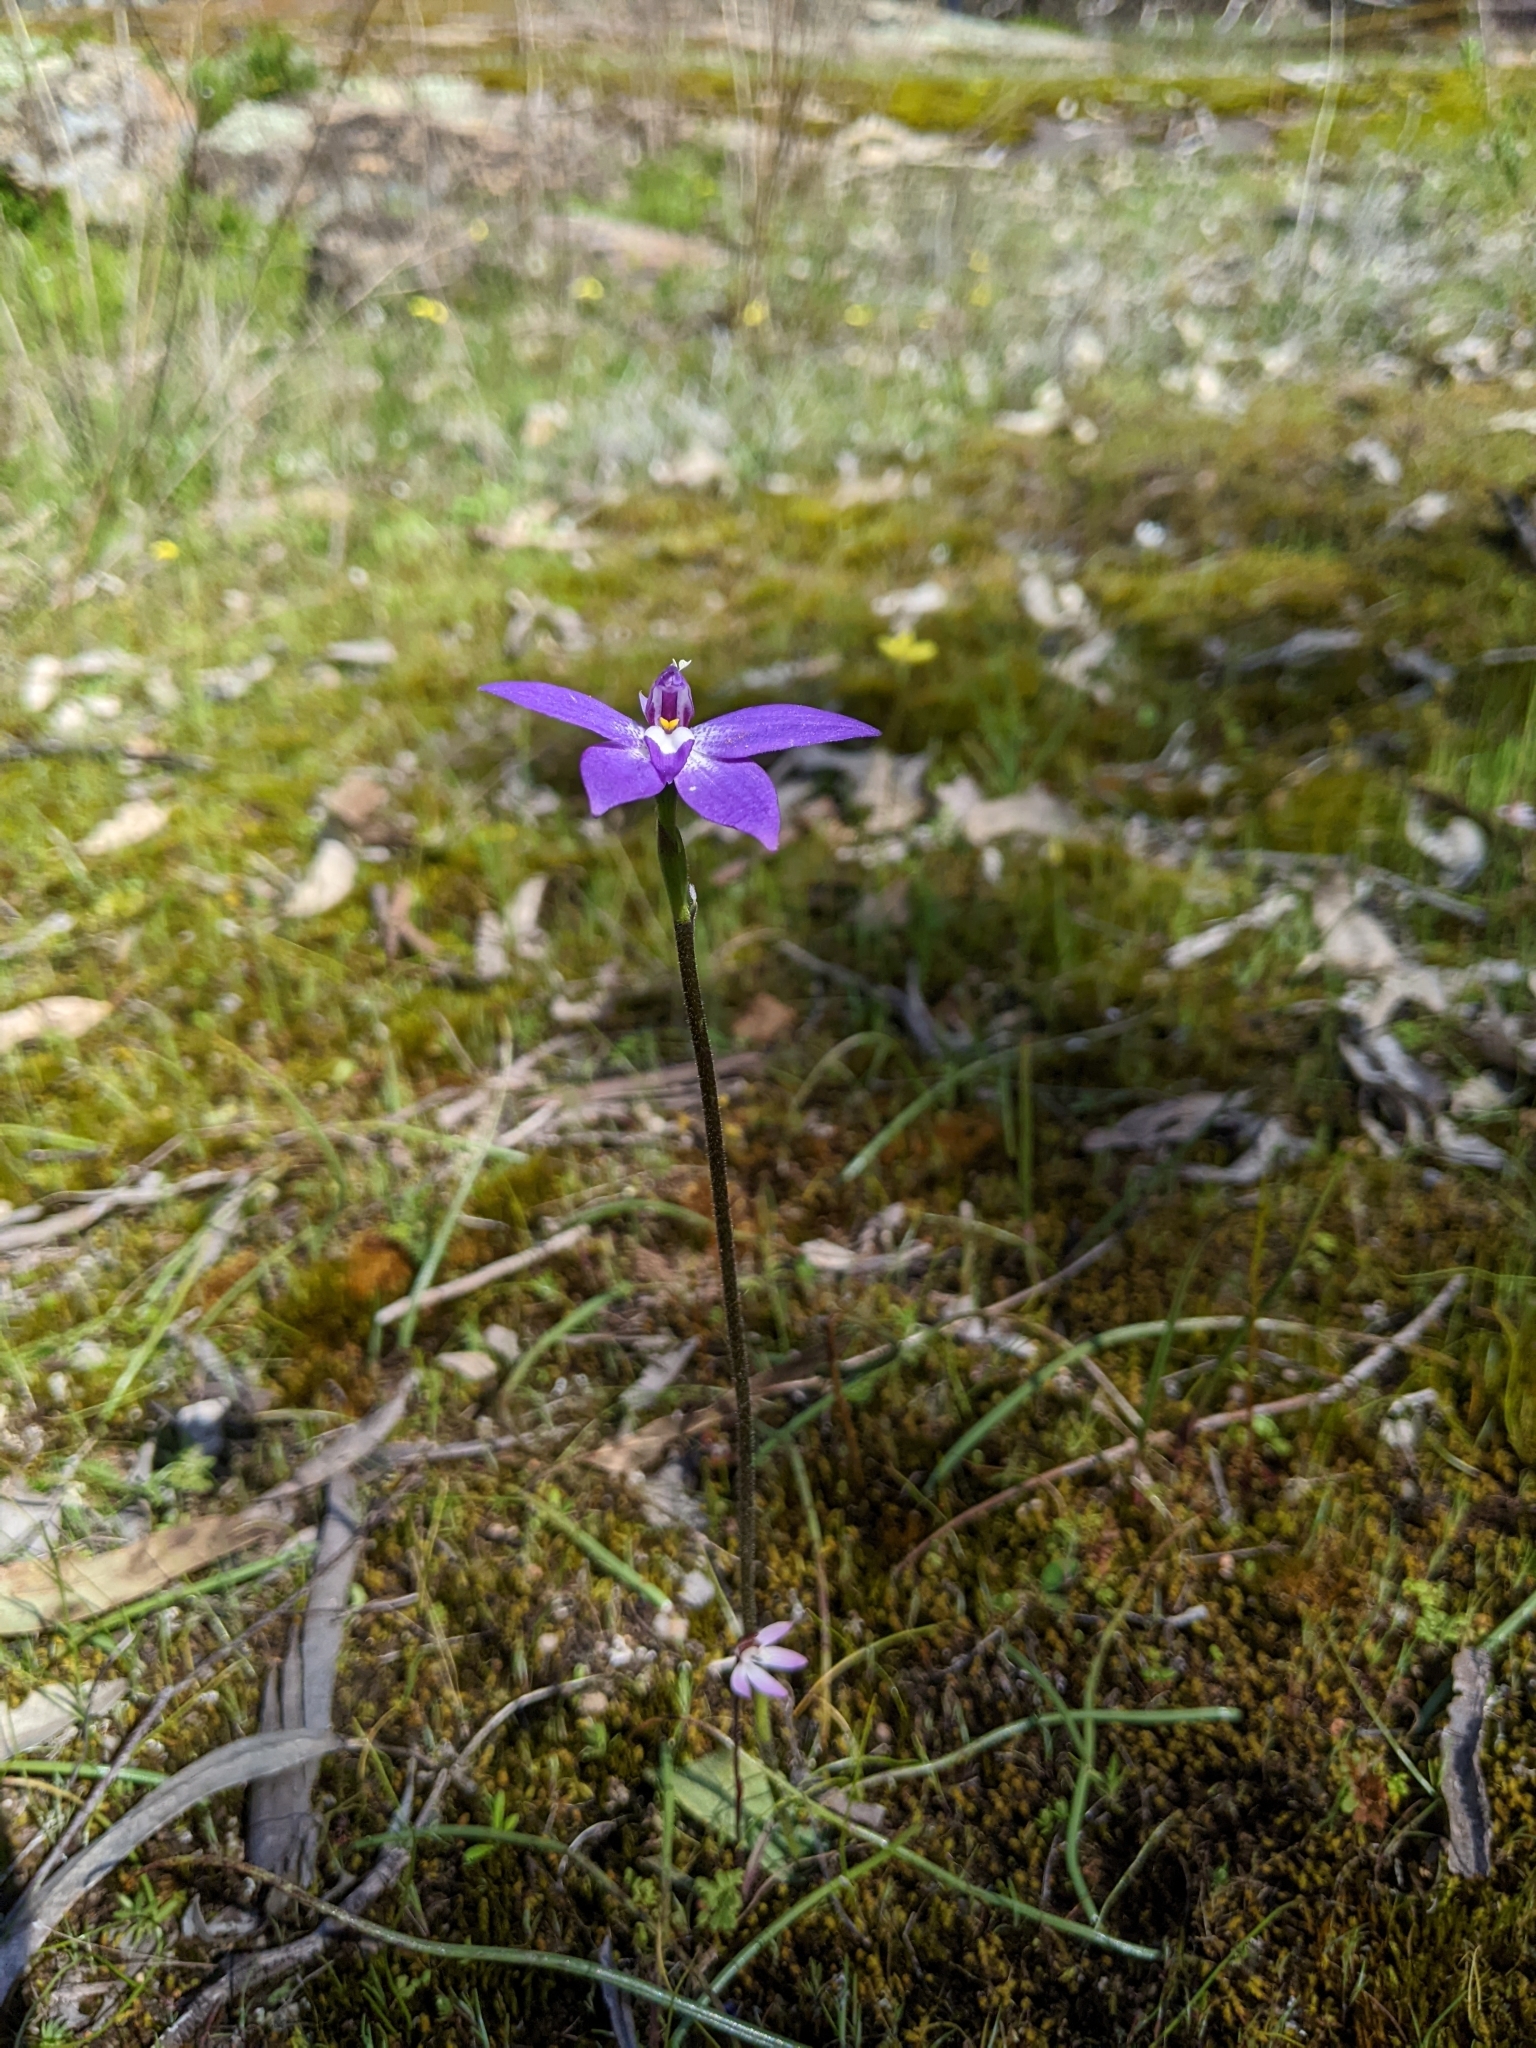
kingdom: Plantae
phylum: Tracheophyta
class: Liliopsida
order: Asparagales
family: Orchidaceae
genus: Caladenia
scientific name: Caladenia major
